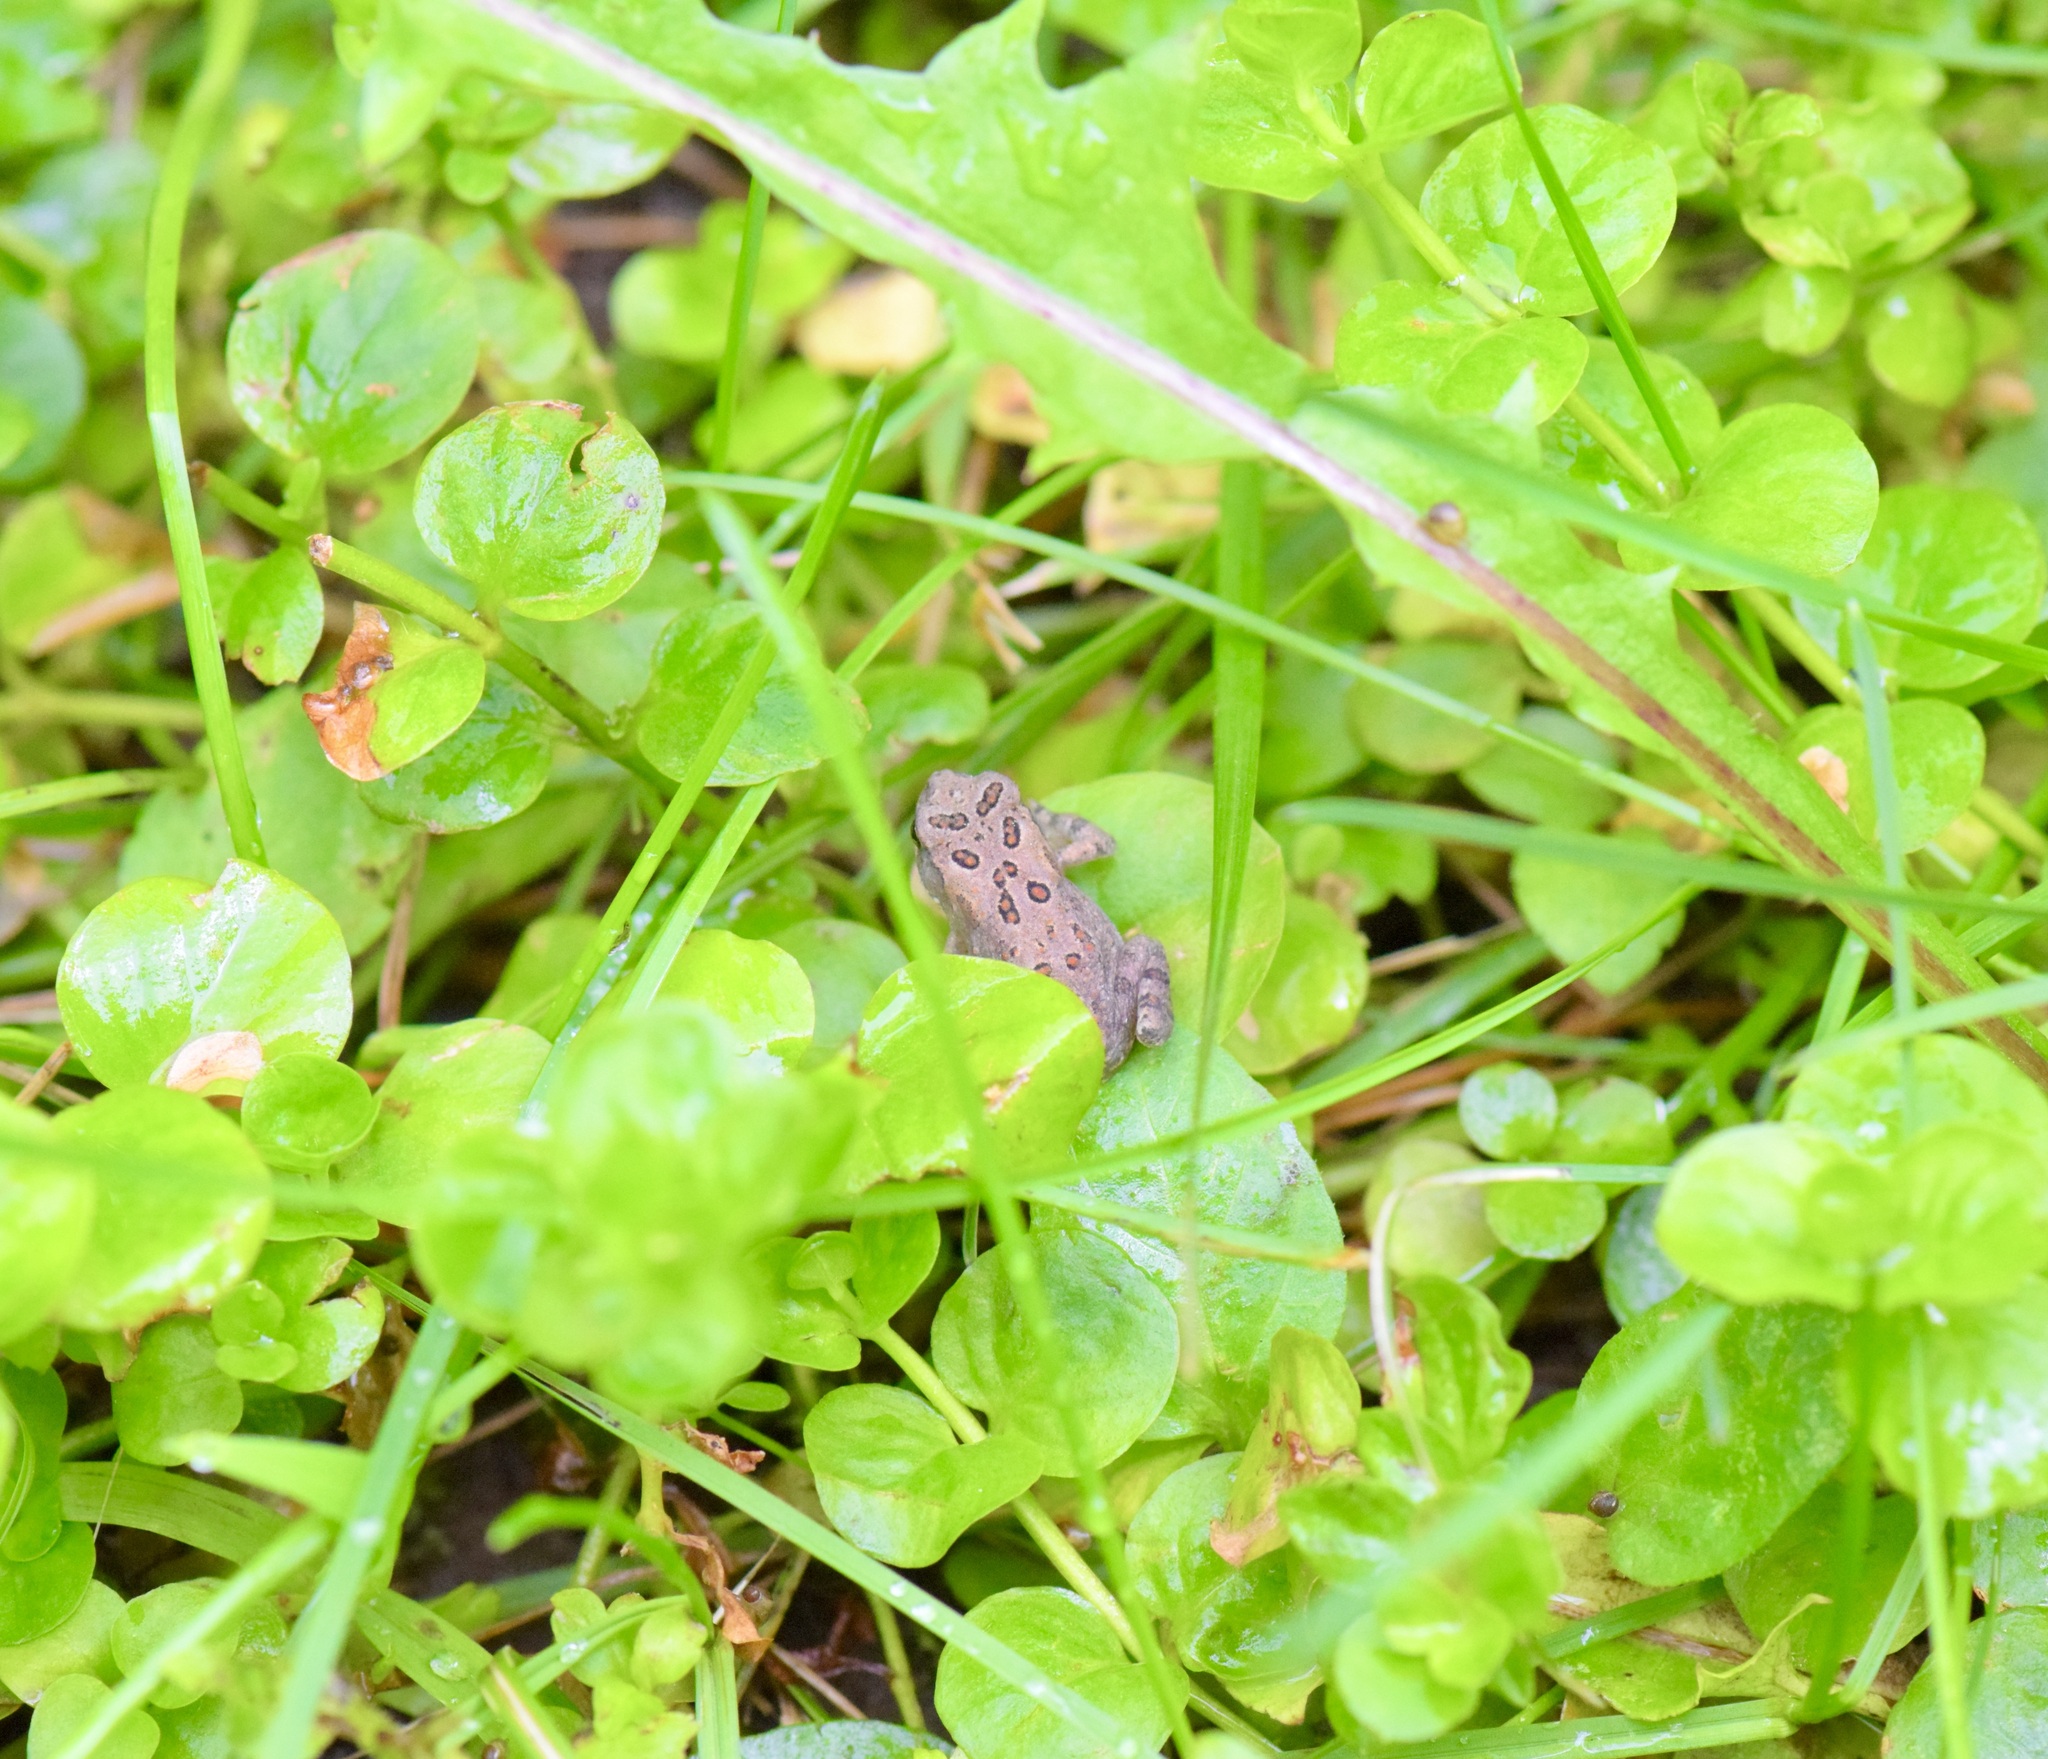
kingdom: Animalia
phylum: Chordata
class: Amphibia
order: Anura
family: Bufonidae
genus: Anaxyrus
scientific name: Anaxyrus americanus
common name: American toad
